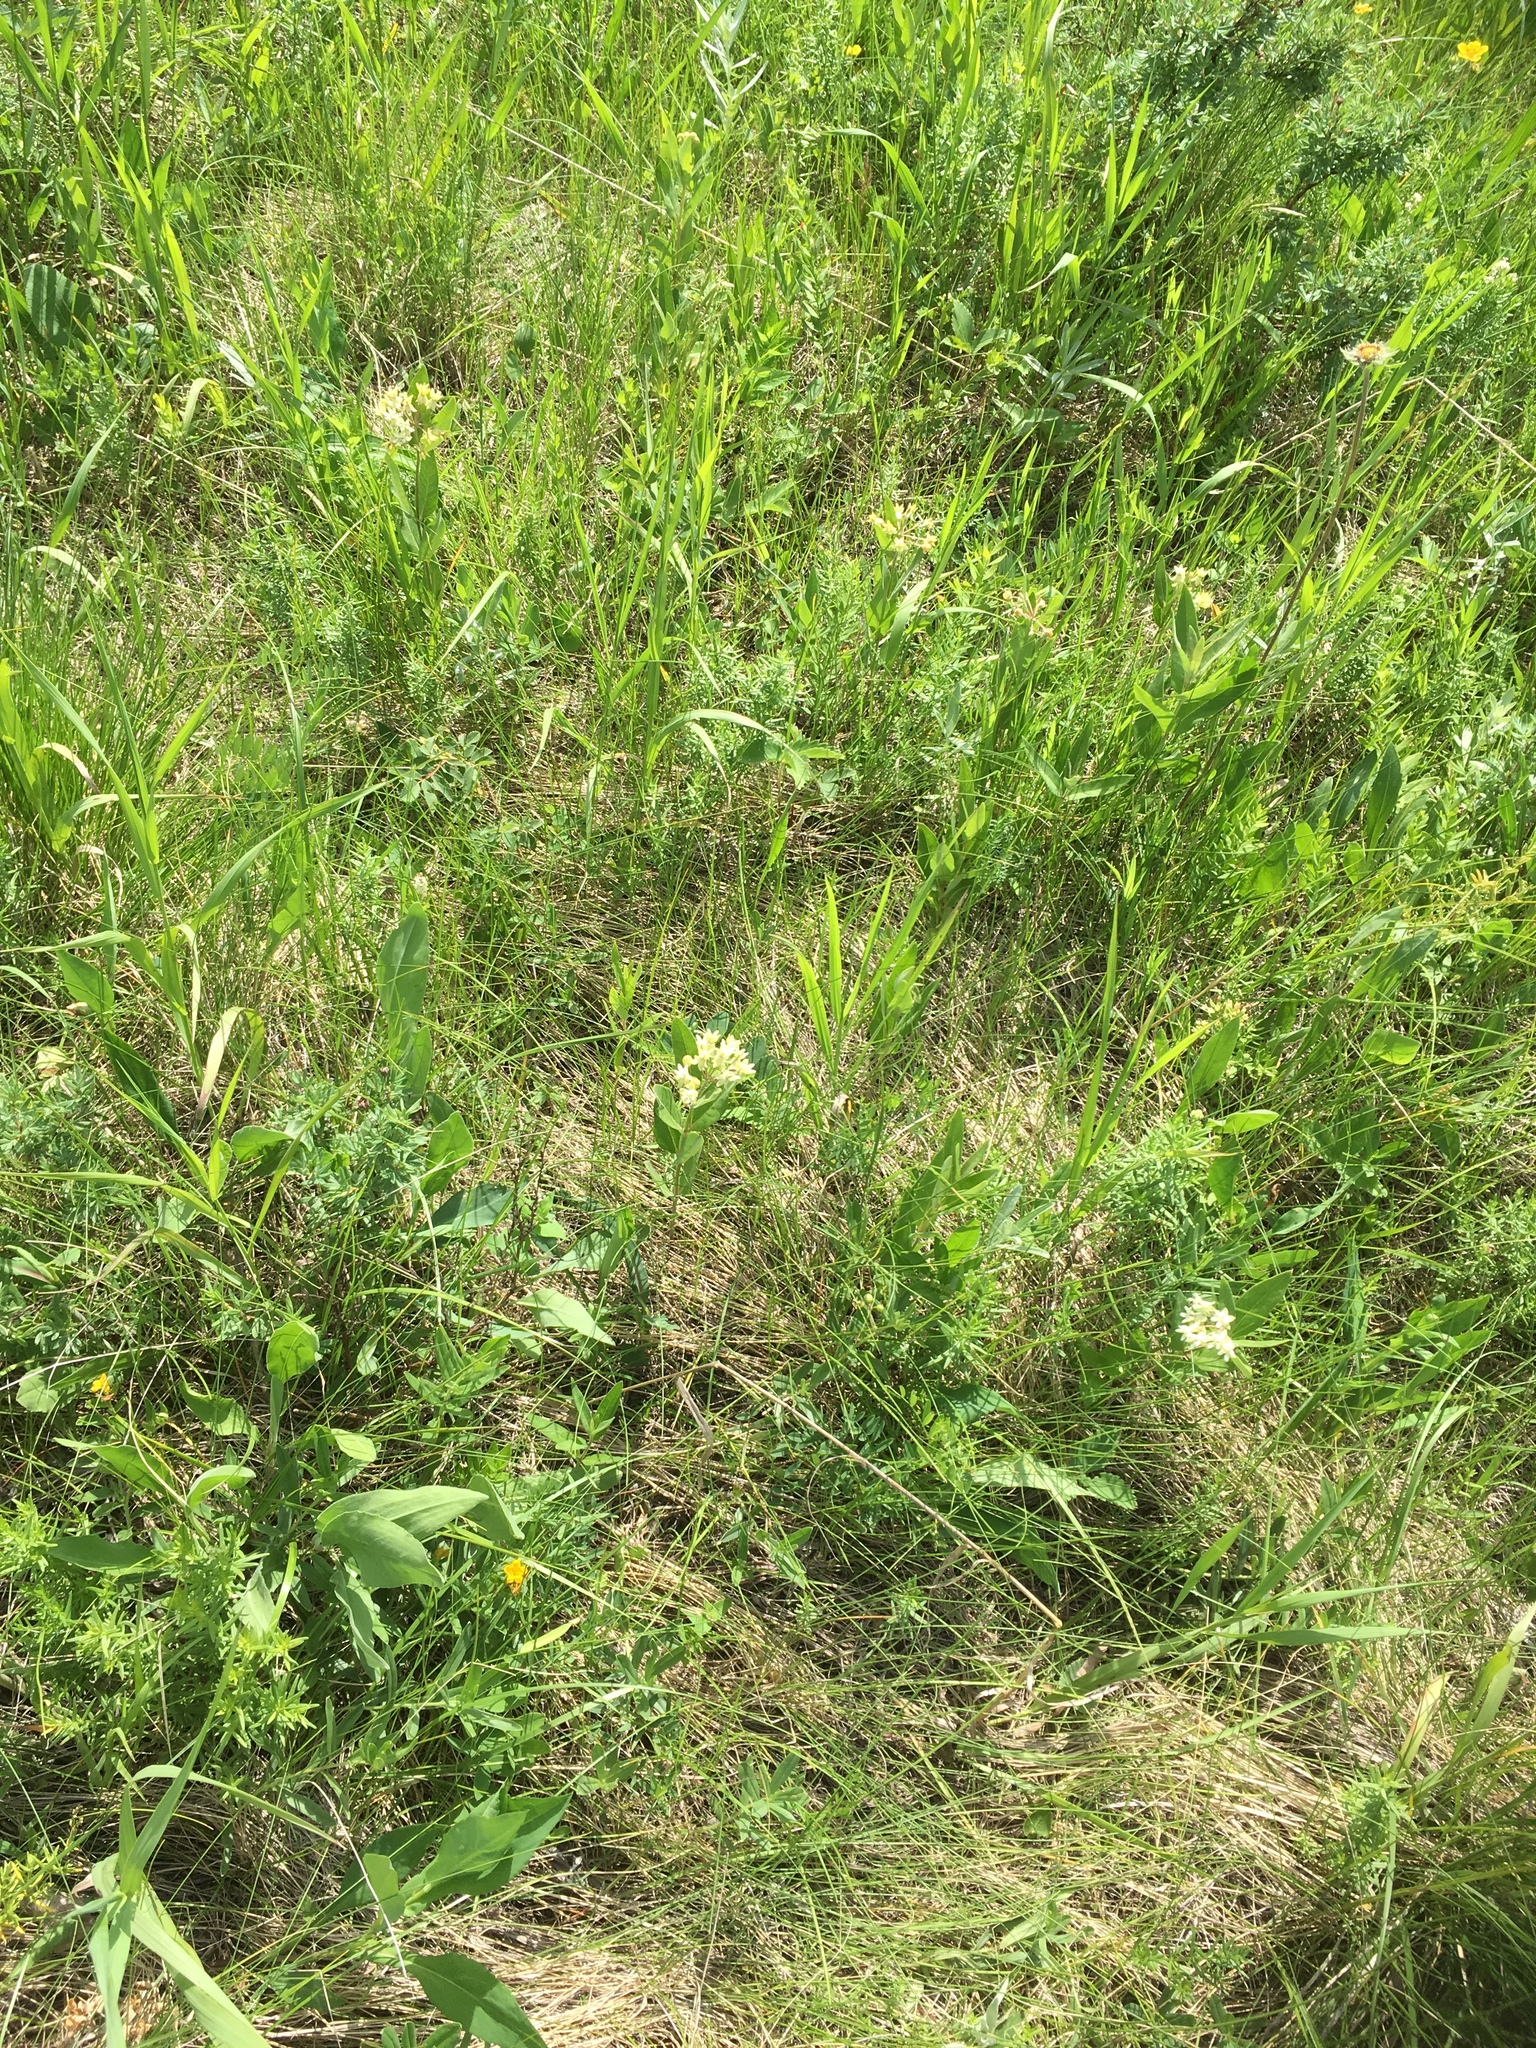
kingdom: Plantae
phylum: Tracheophyta
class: Magnoliopsida
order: Gentianales
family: Apocynaceae
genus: Asclepias
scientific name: Asclepias ovalifolia
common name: Dwarf milkweed
